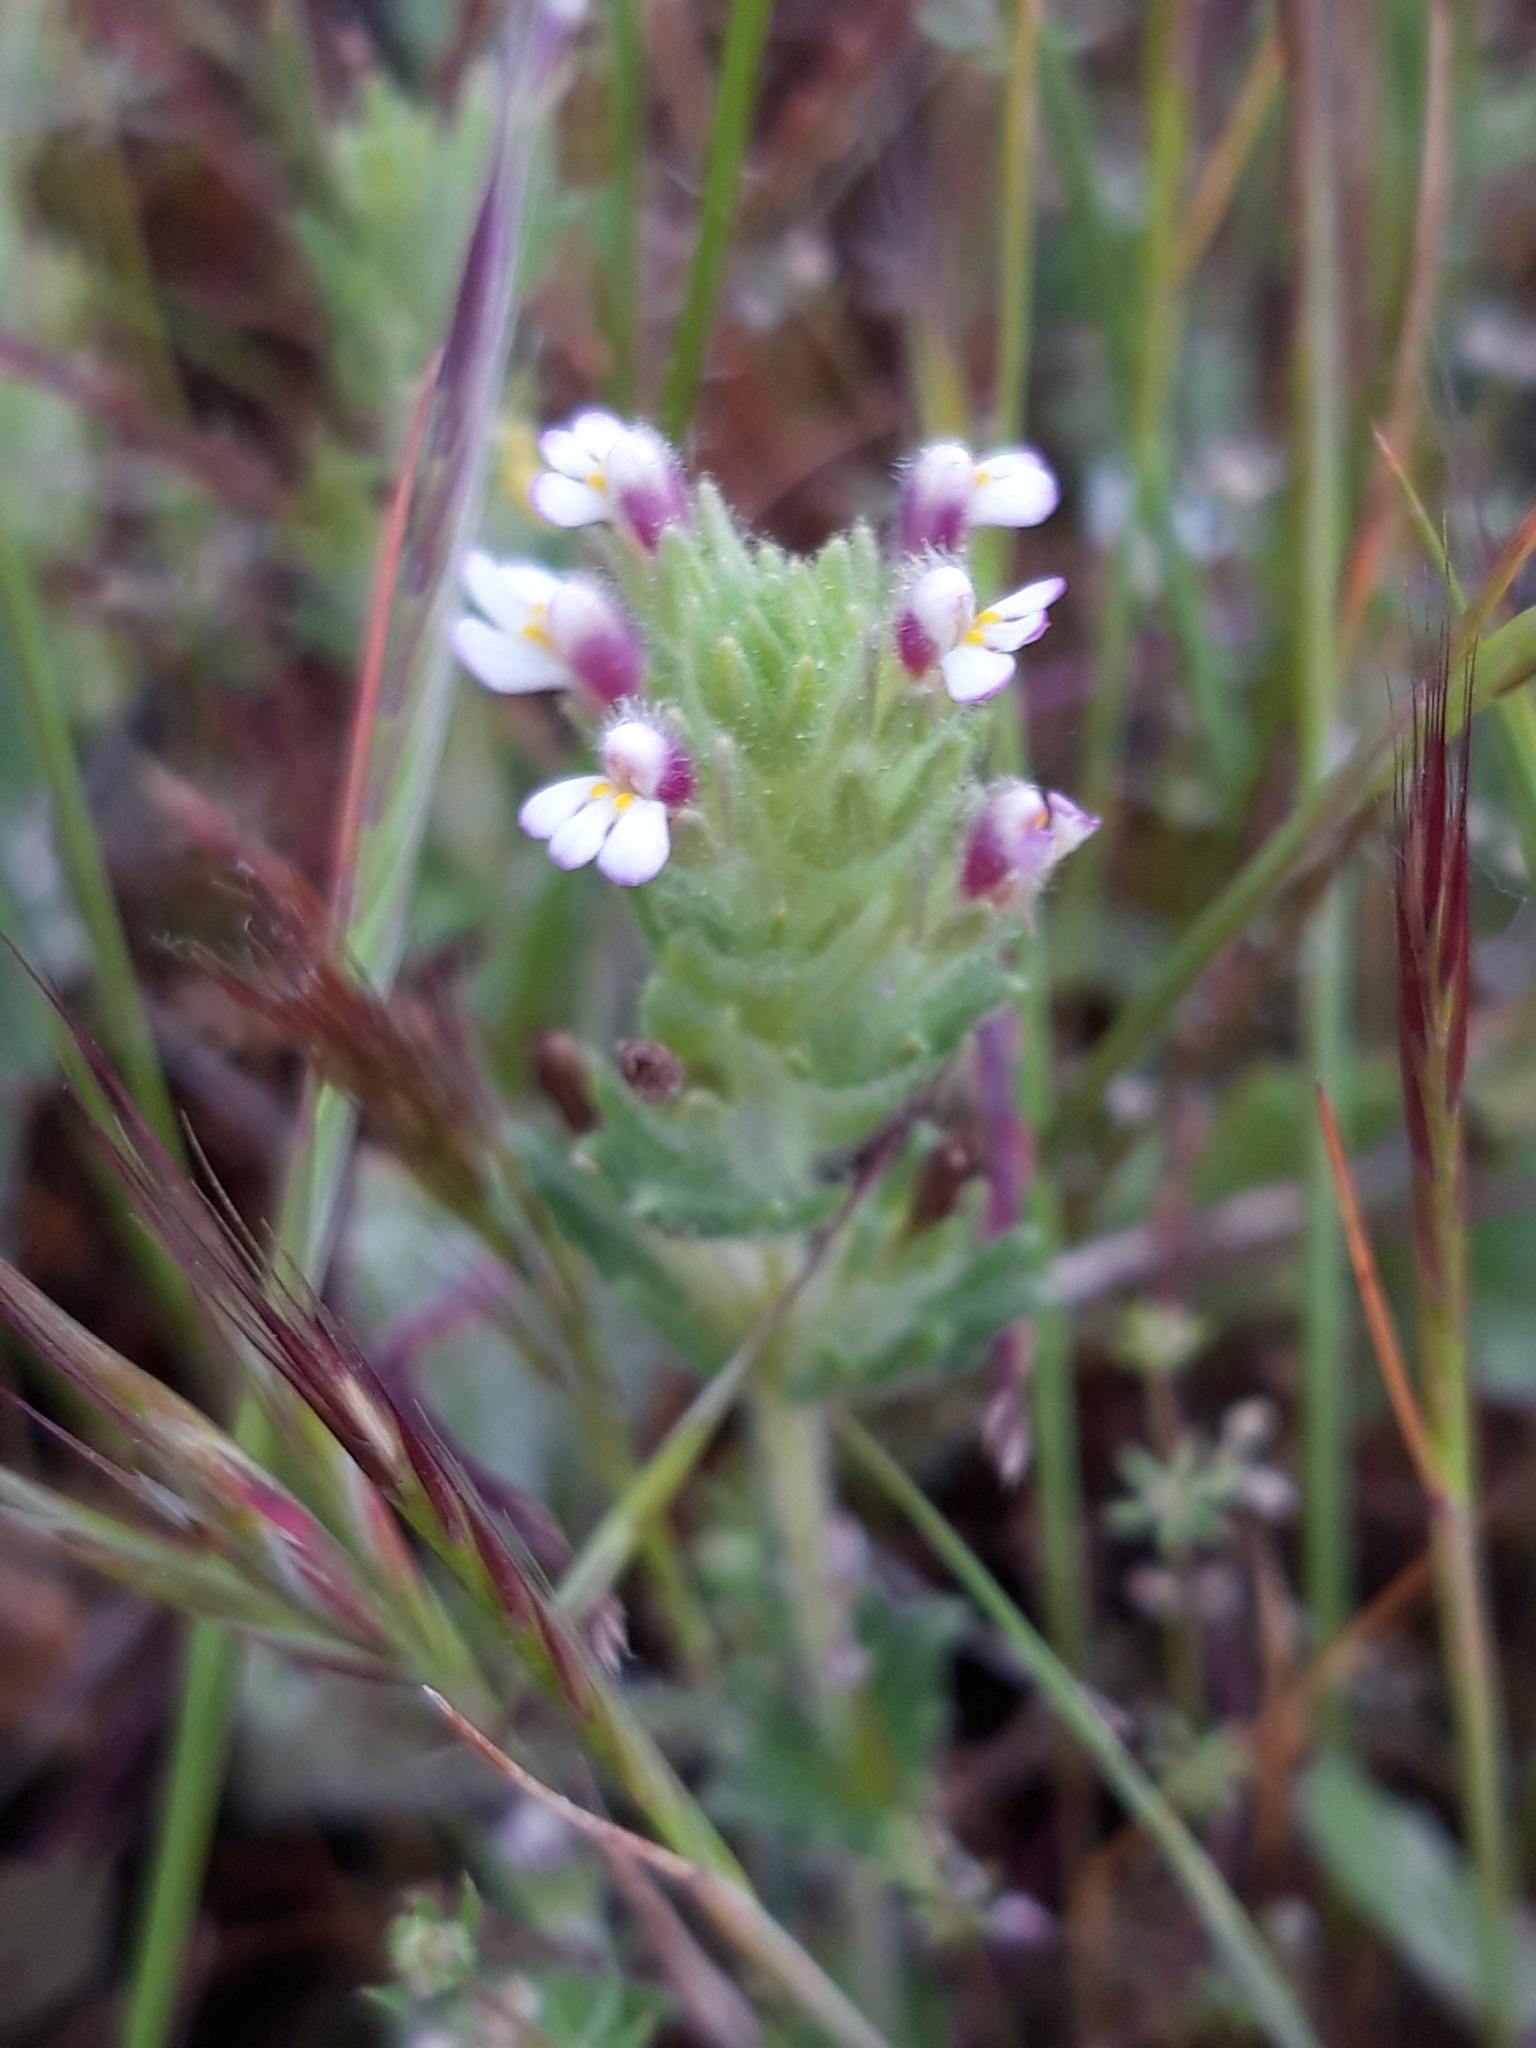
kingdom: Plantae
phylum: Tracheophyta
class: Magnoliopsida
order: Lamiales
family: Orobanchaceae
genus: Parentucellia
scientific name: Parentucellia latifolia
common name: Broadleaf glandweed
